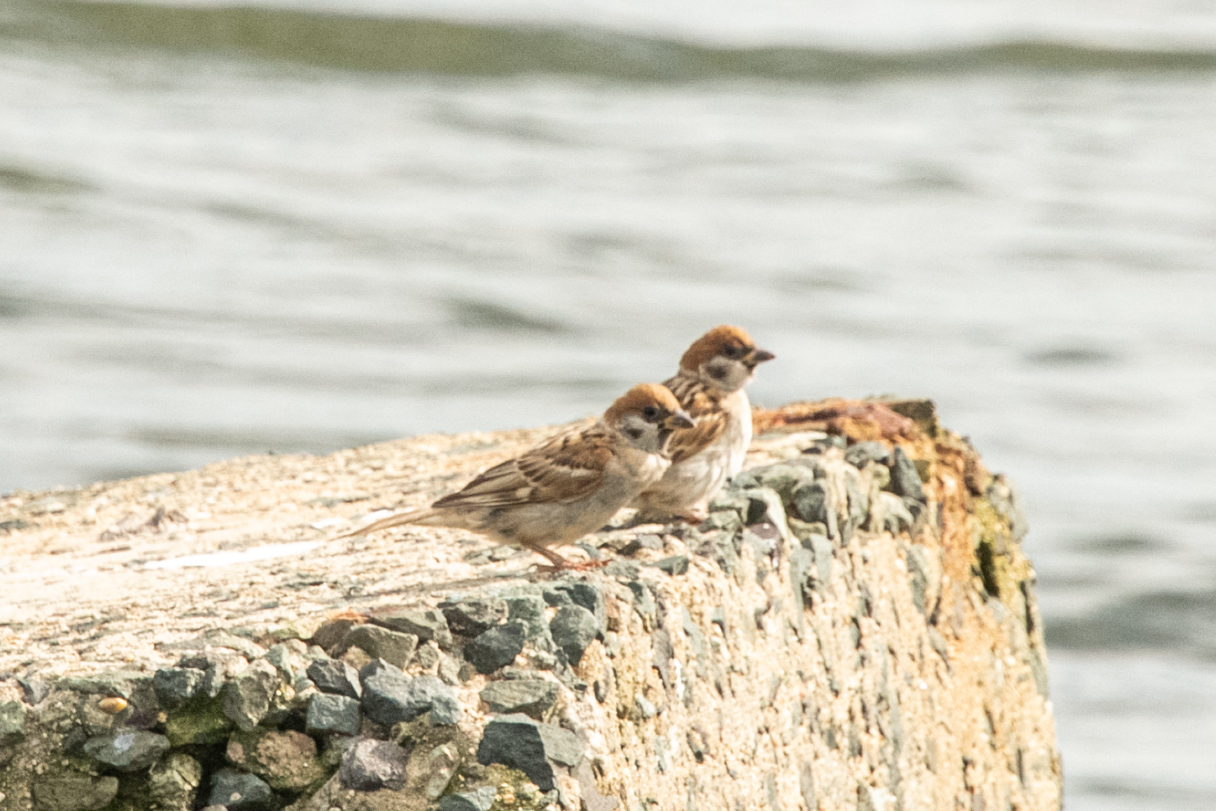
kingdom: Animalia
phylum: Chordata
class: Aves
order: Passeriformes
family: Passeridae
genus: Passer
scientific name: Passer montanus
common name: Eurasian tree sparrow
